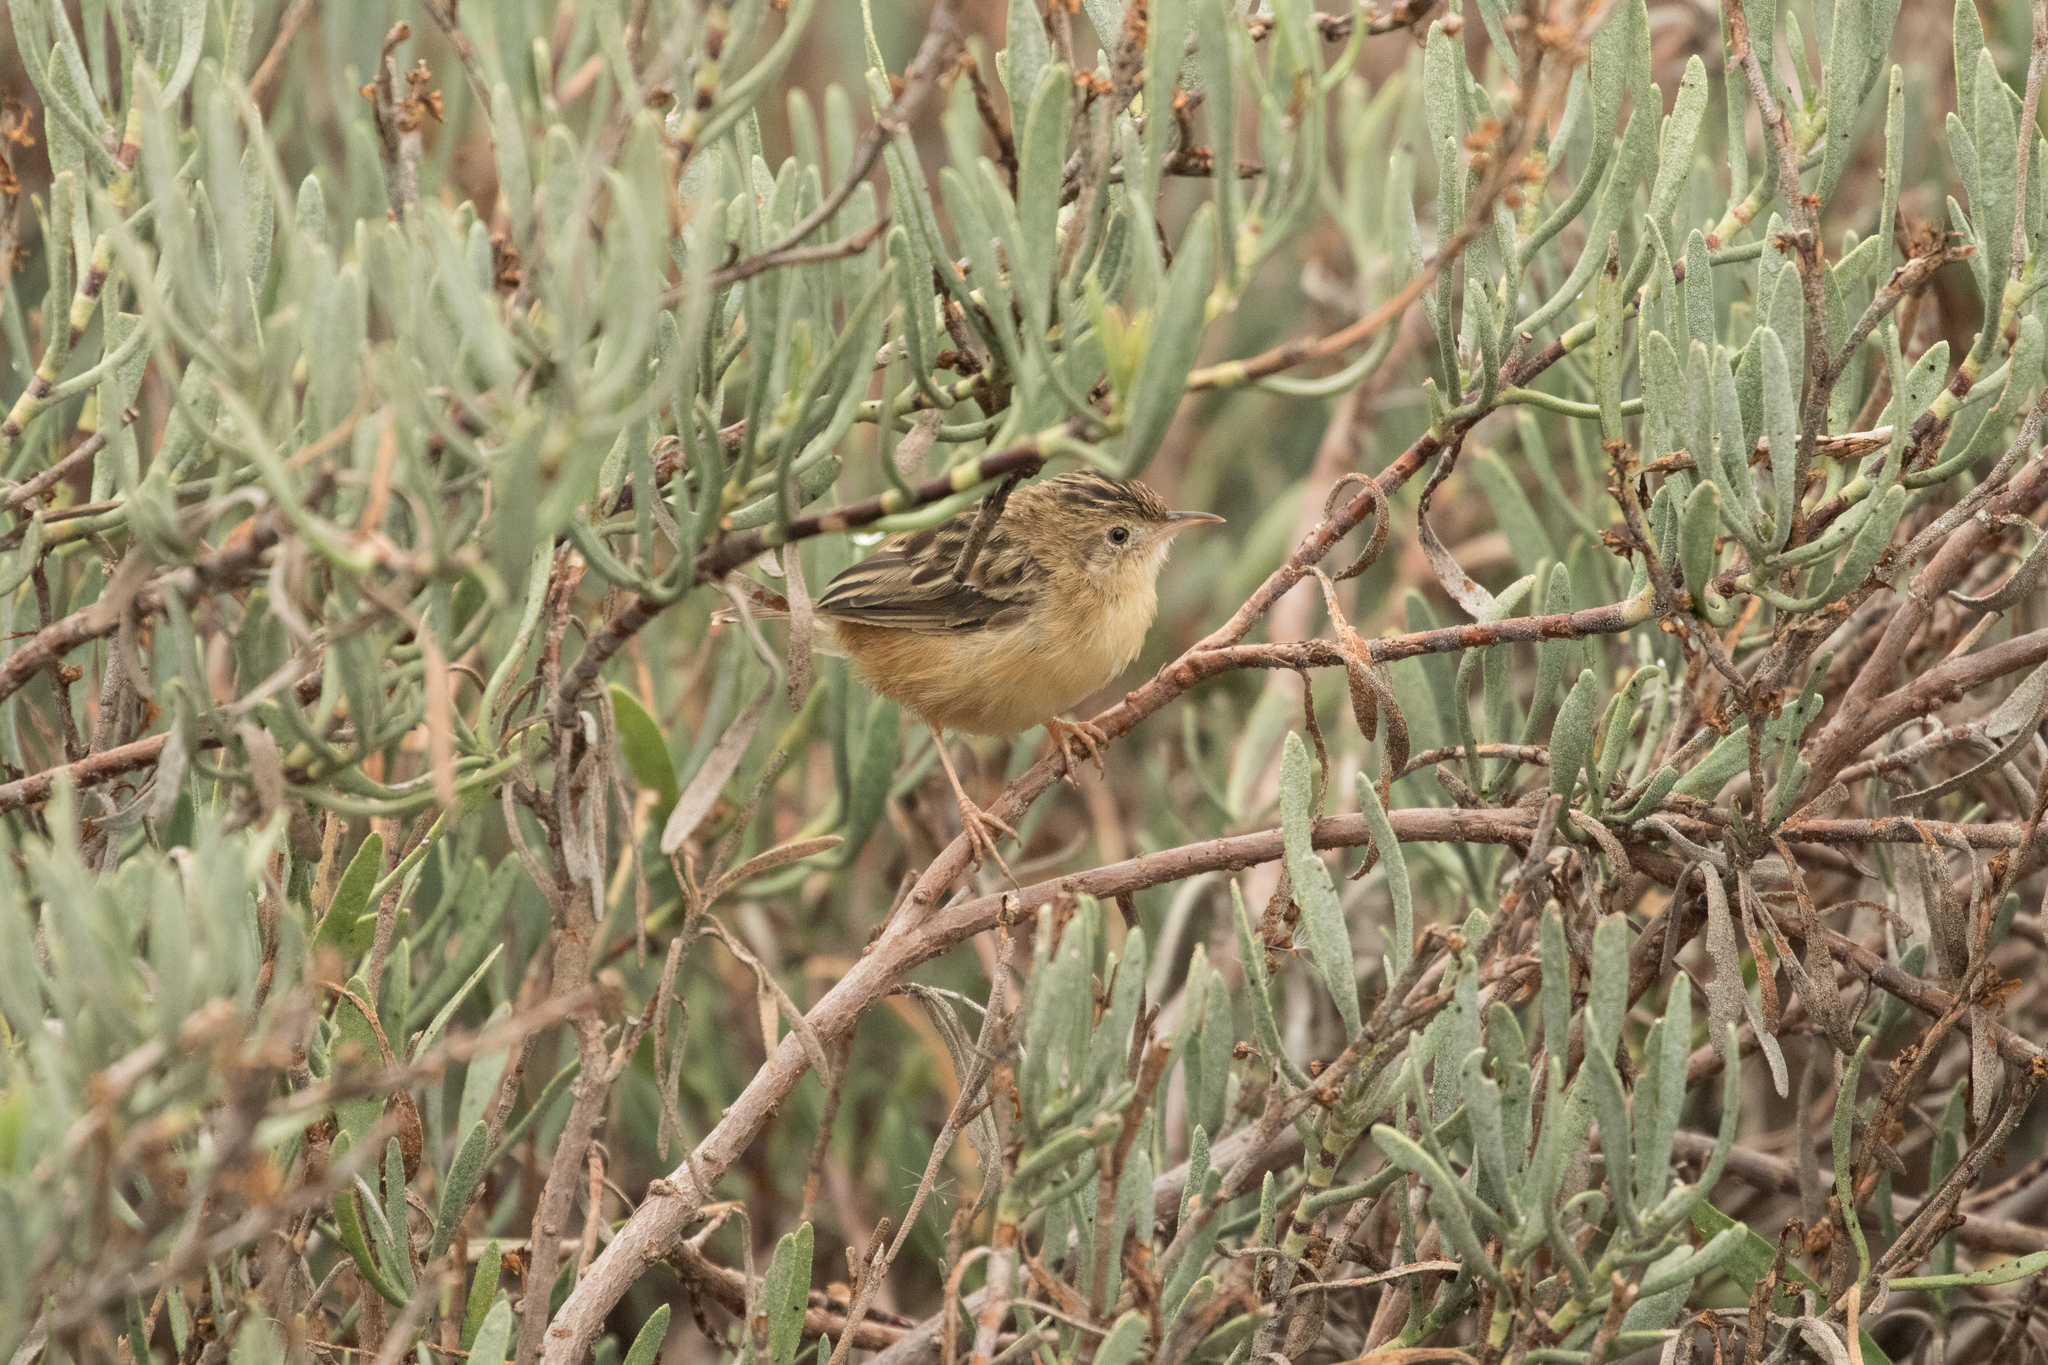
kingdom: Animalia
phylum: Chordata
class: Aves
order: Passeriformes
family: Cisticolidae
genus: Cisticola
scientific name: Cisticola juncidis
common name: Zitting cisticola
